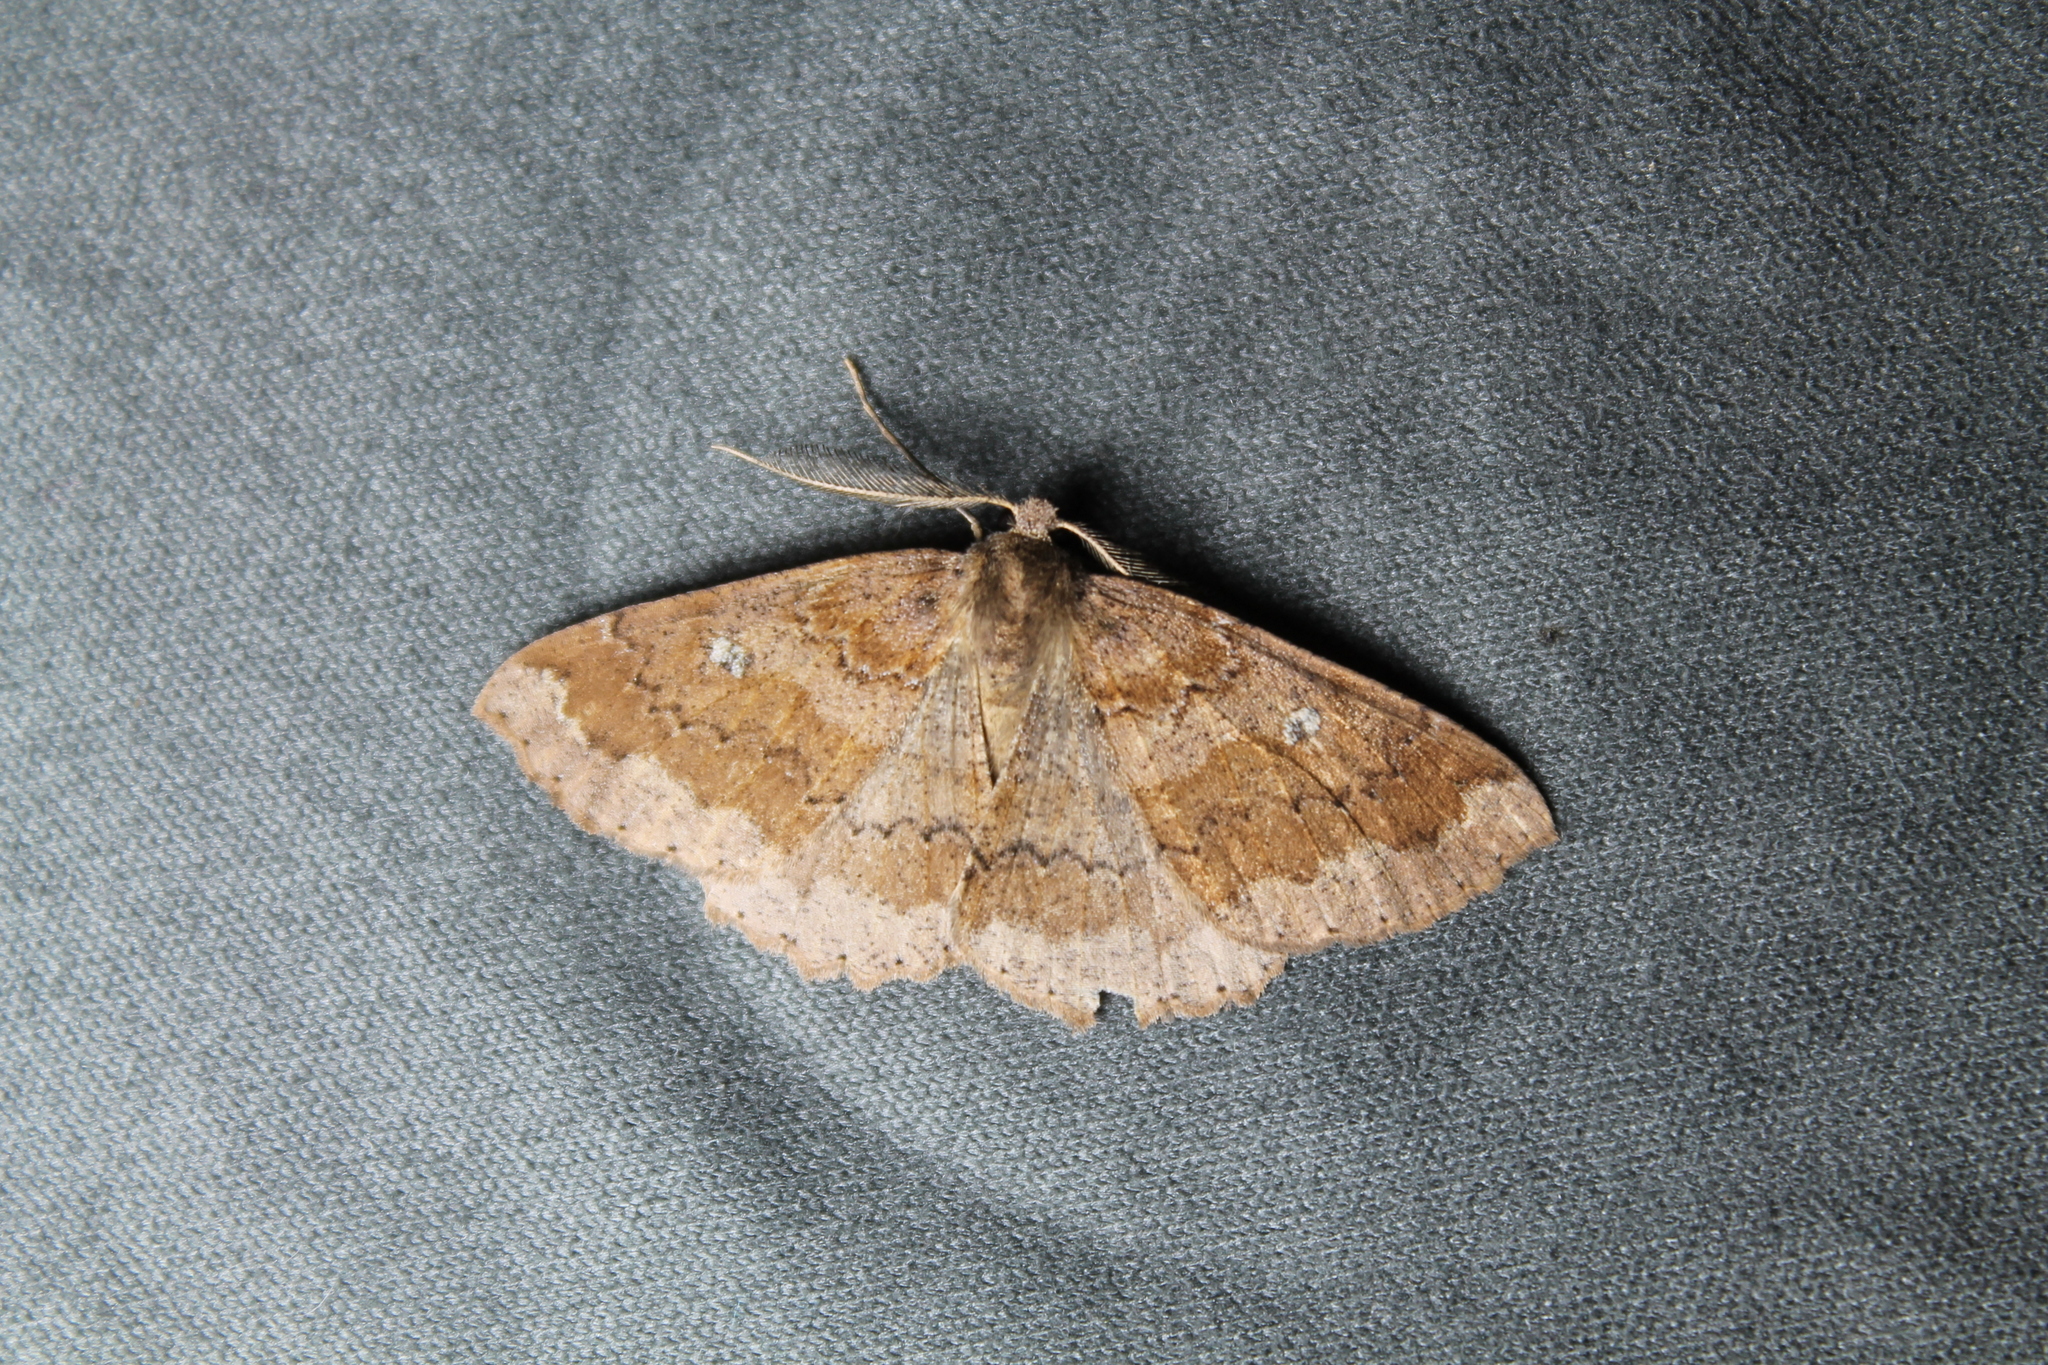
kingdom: Animalia
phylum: Arthropoda
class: Insecta
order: Lepidoptera
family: Geometridae
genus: Cleora
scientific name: Cleora scriptaria
